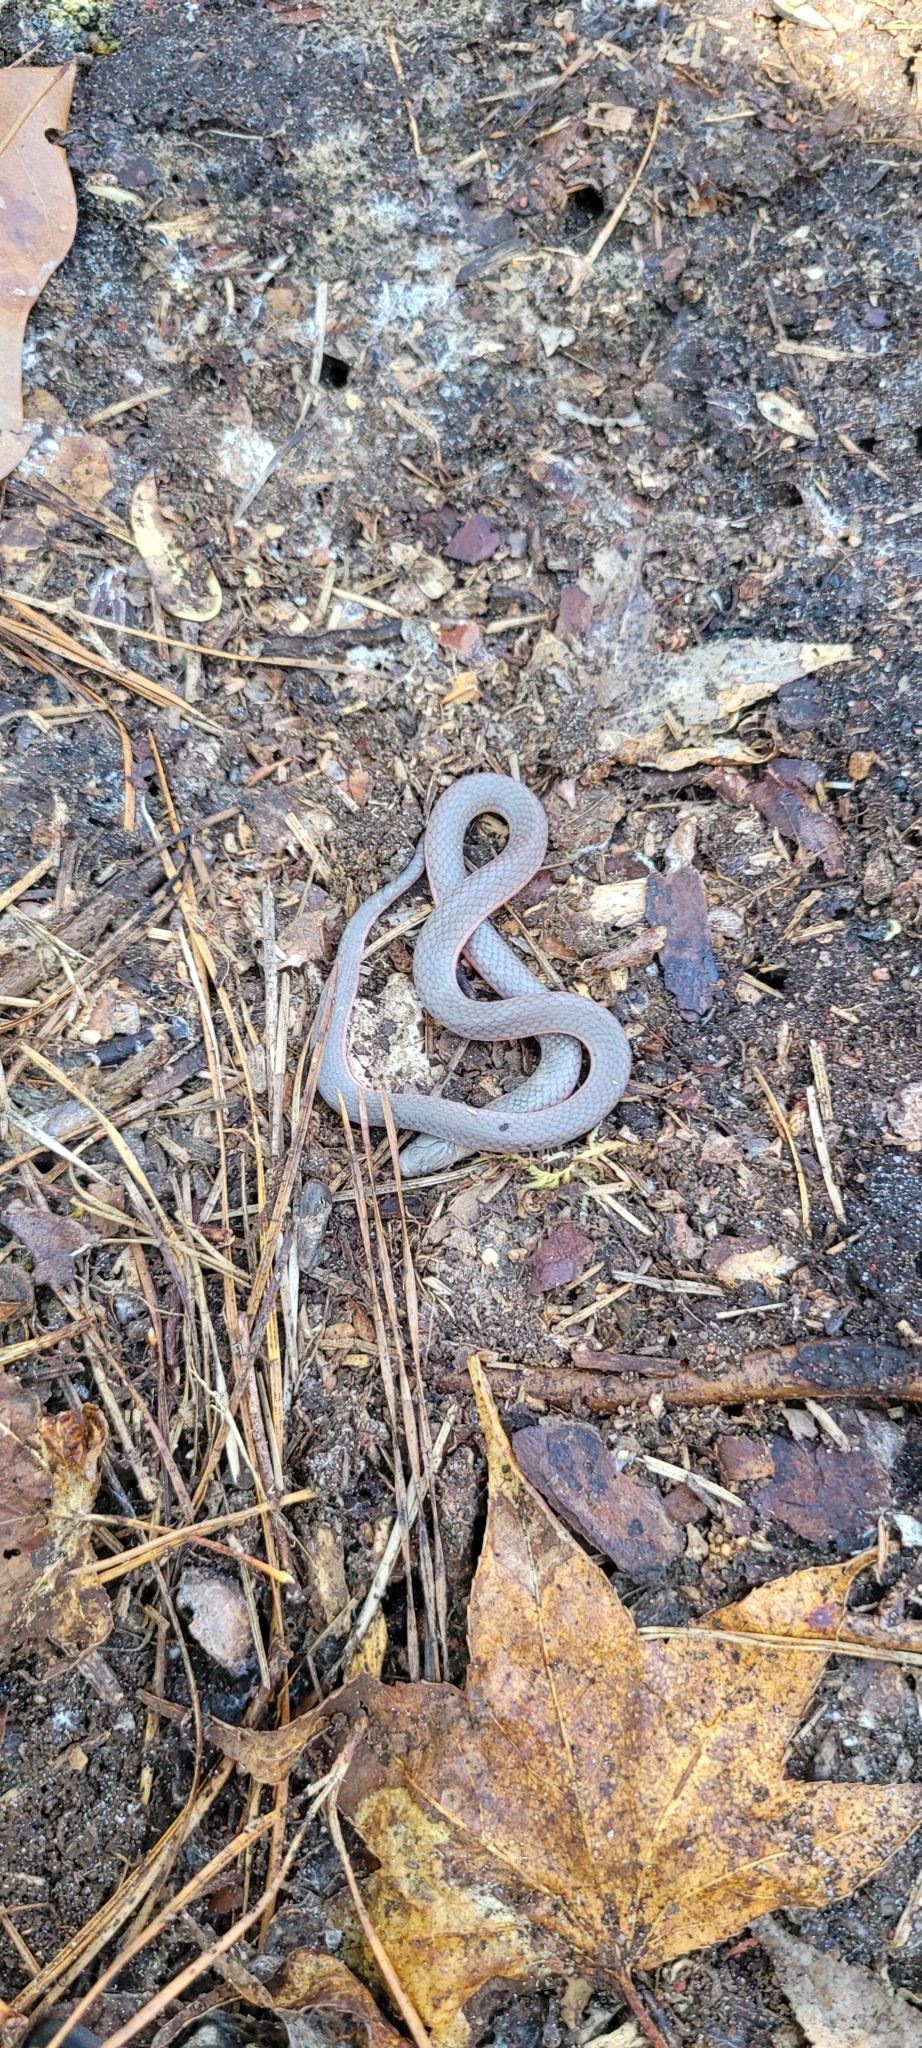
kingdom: Animalia
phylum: Chordata
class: Squamata
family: Colubridae
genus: Carphophis
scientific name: Carphophis amoenus
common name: Eastern worm snake
